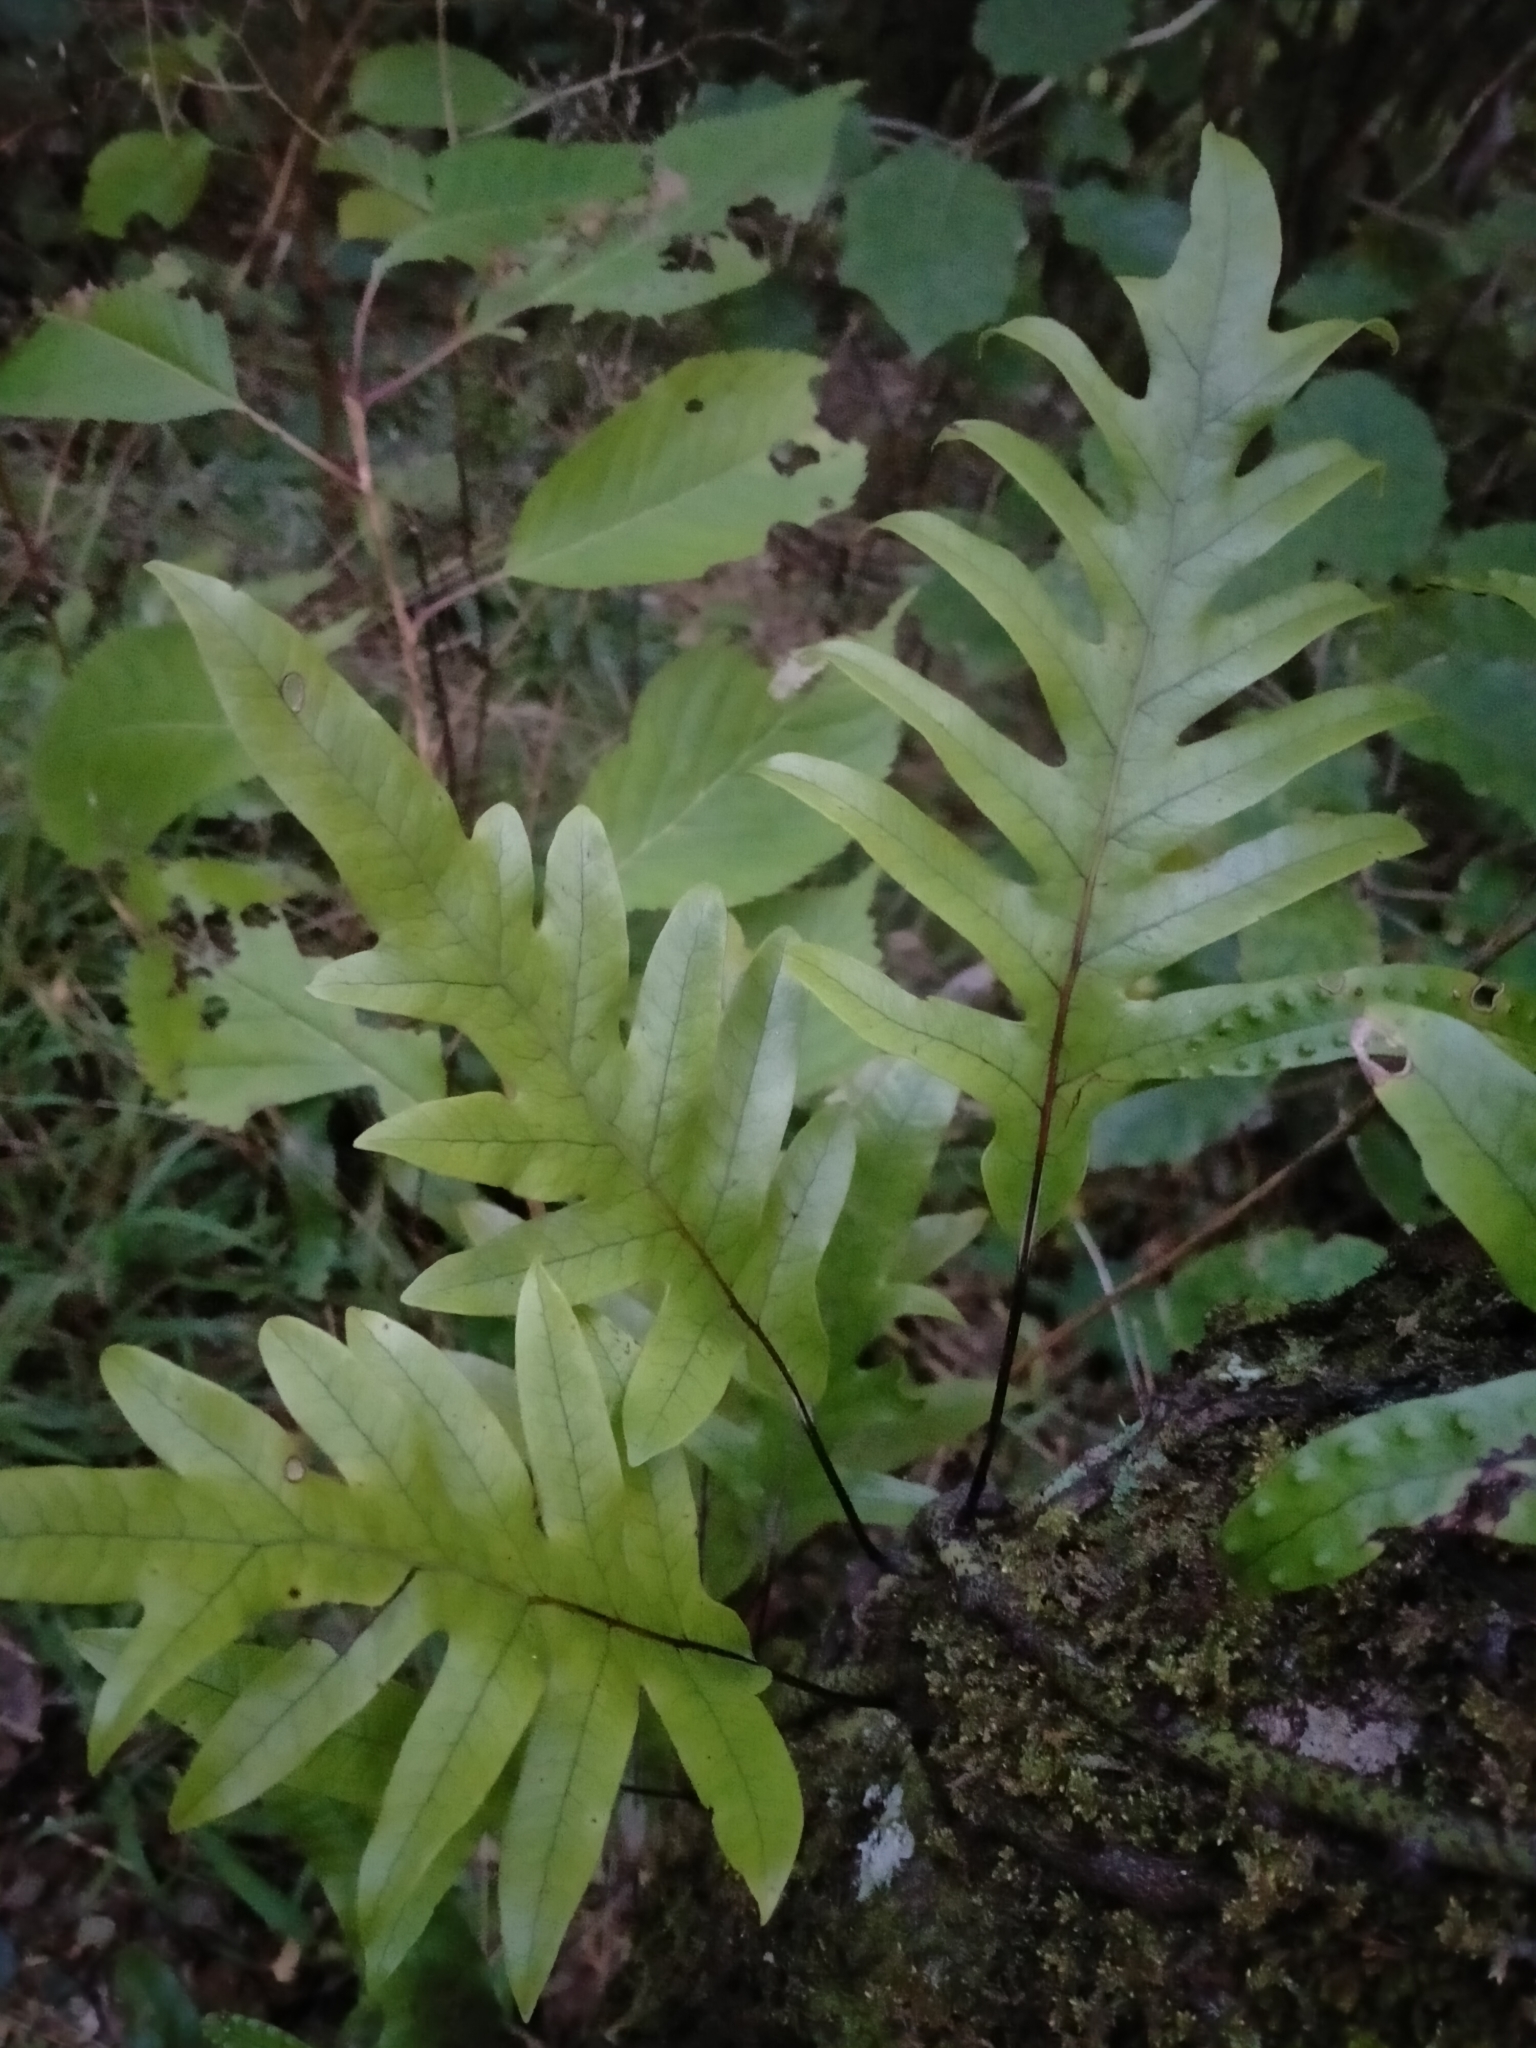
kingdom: Plantae
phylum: Tracheophyta
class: Polypodiopsida
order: Polypodiales
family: Polypodiaceae
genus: Lecanopteris
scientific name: Lecanopteris pustulata
